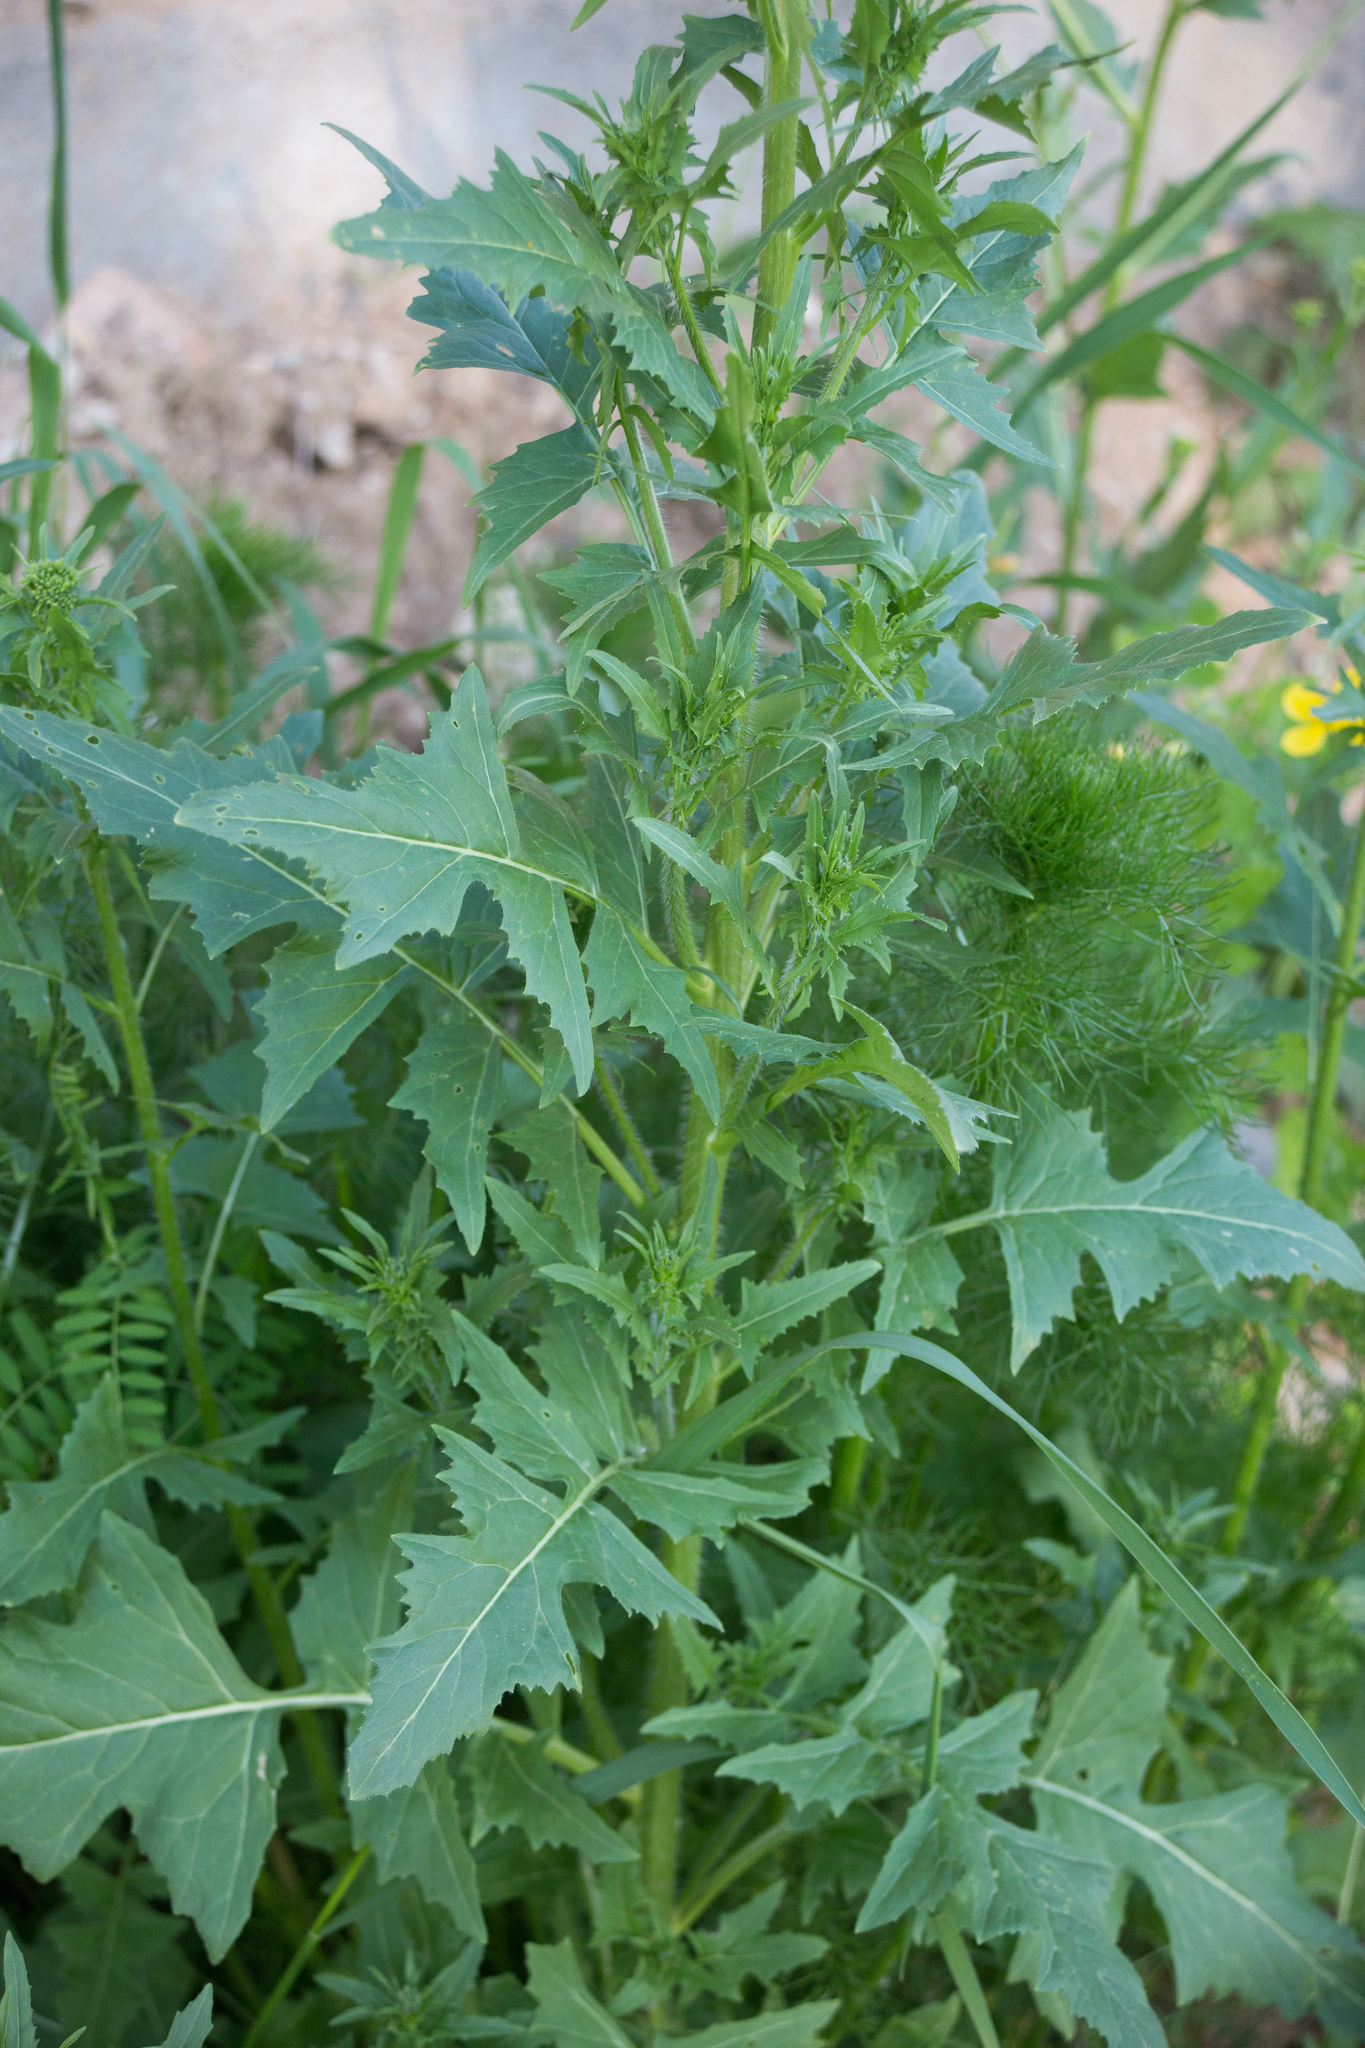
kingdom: Plantae
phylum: Tracheophyta
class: Magnoliopsida
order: Brassicales
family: Brassicaceae
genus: Sisymbrium
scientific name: Sisymbrium loeselii
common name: False london-rocket
